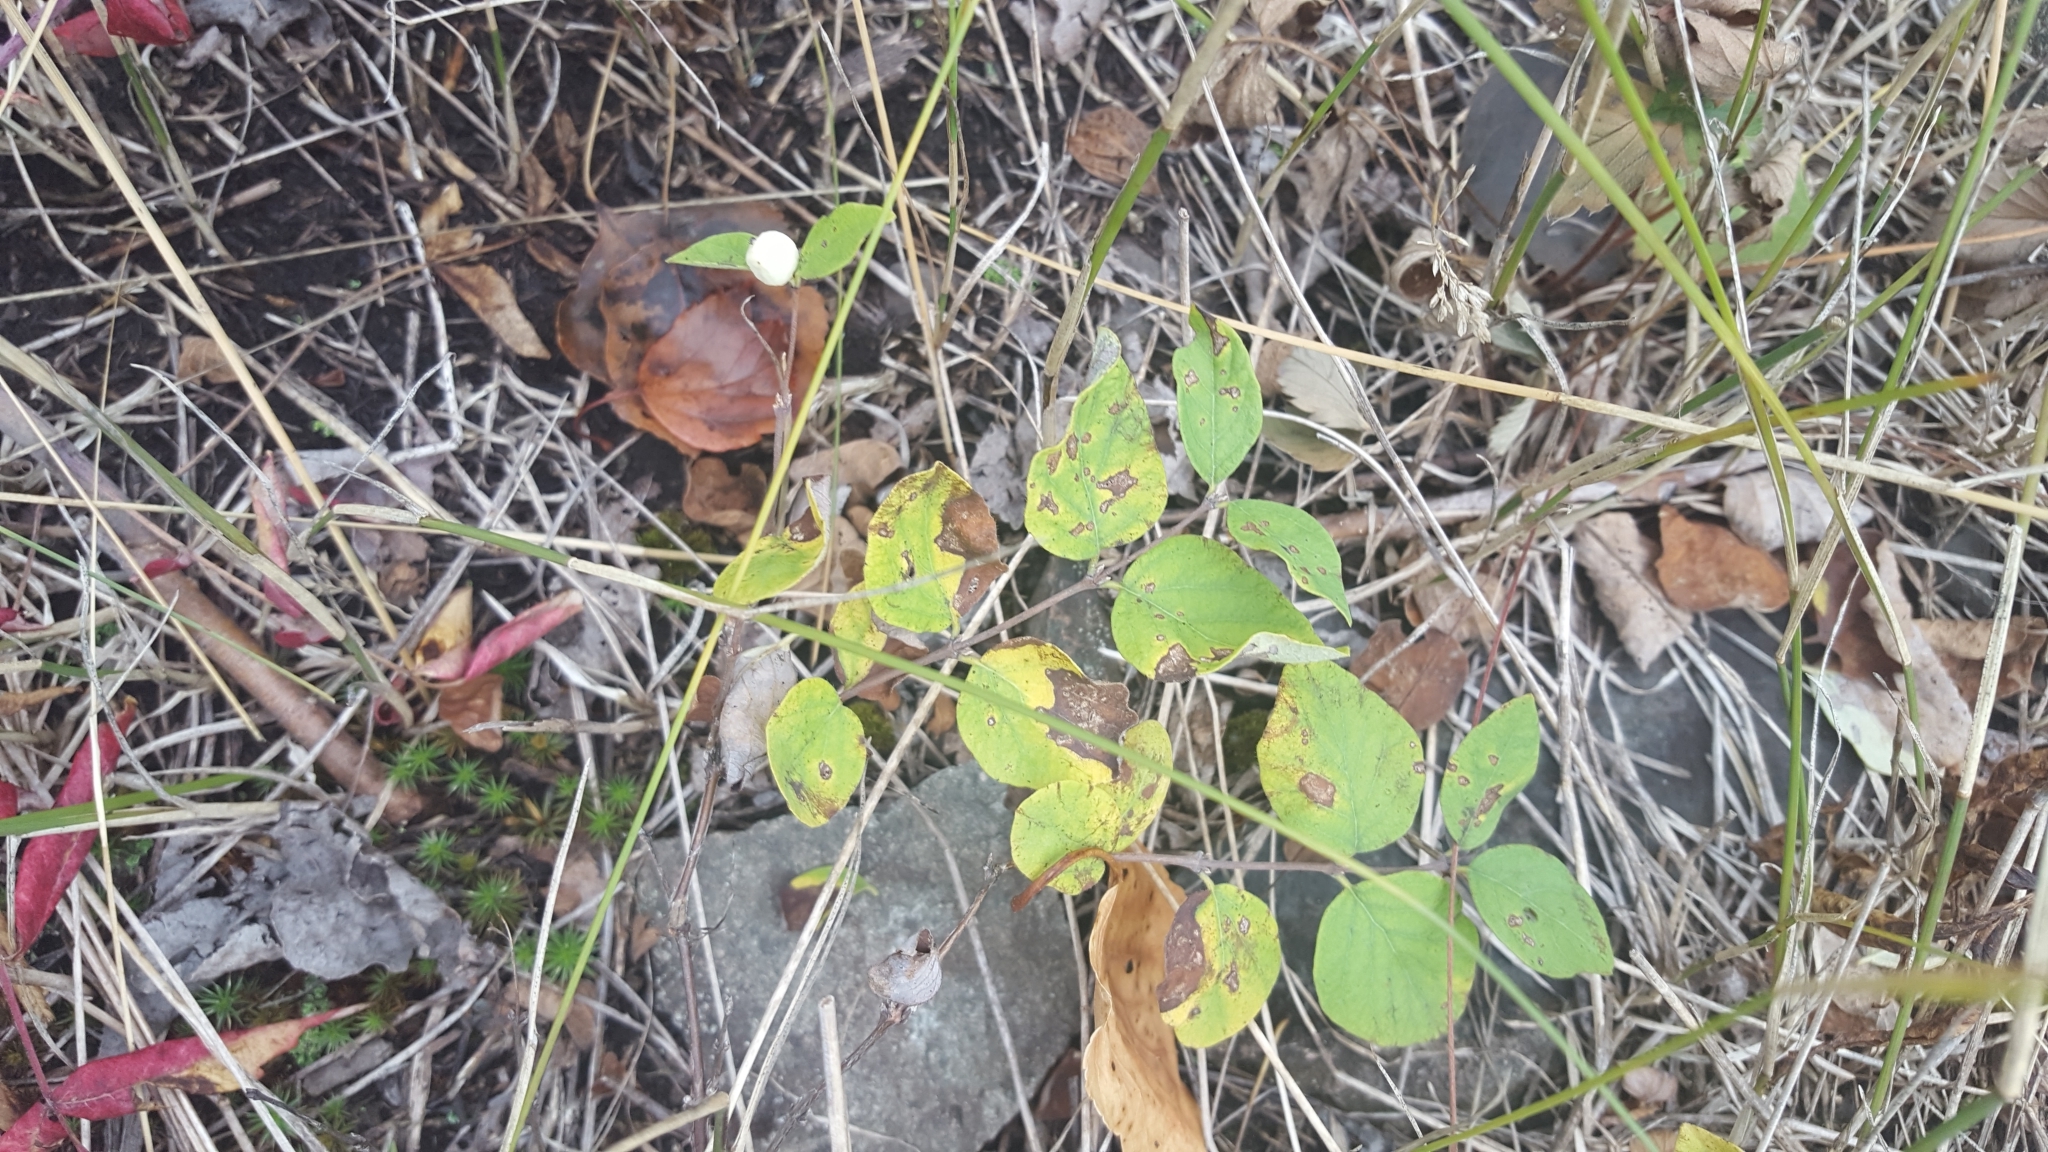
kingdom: Plantae
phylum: Tracheophyta
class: Magnoliopsida
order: Dipsacales
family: Caprifoliaceae
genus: Symphoricarpos
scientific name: Symphoricarpos albus
